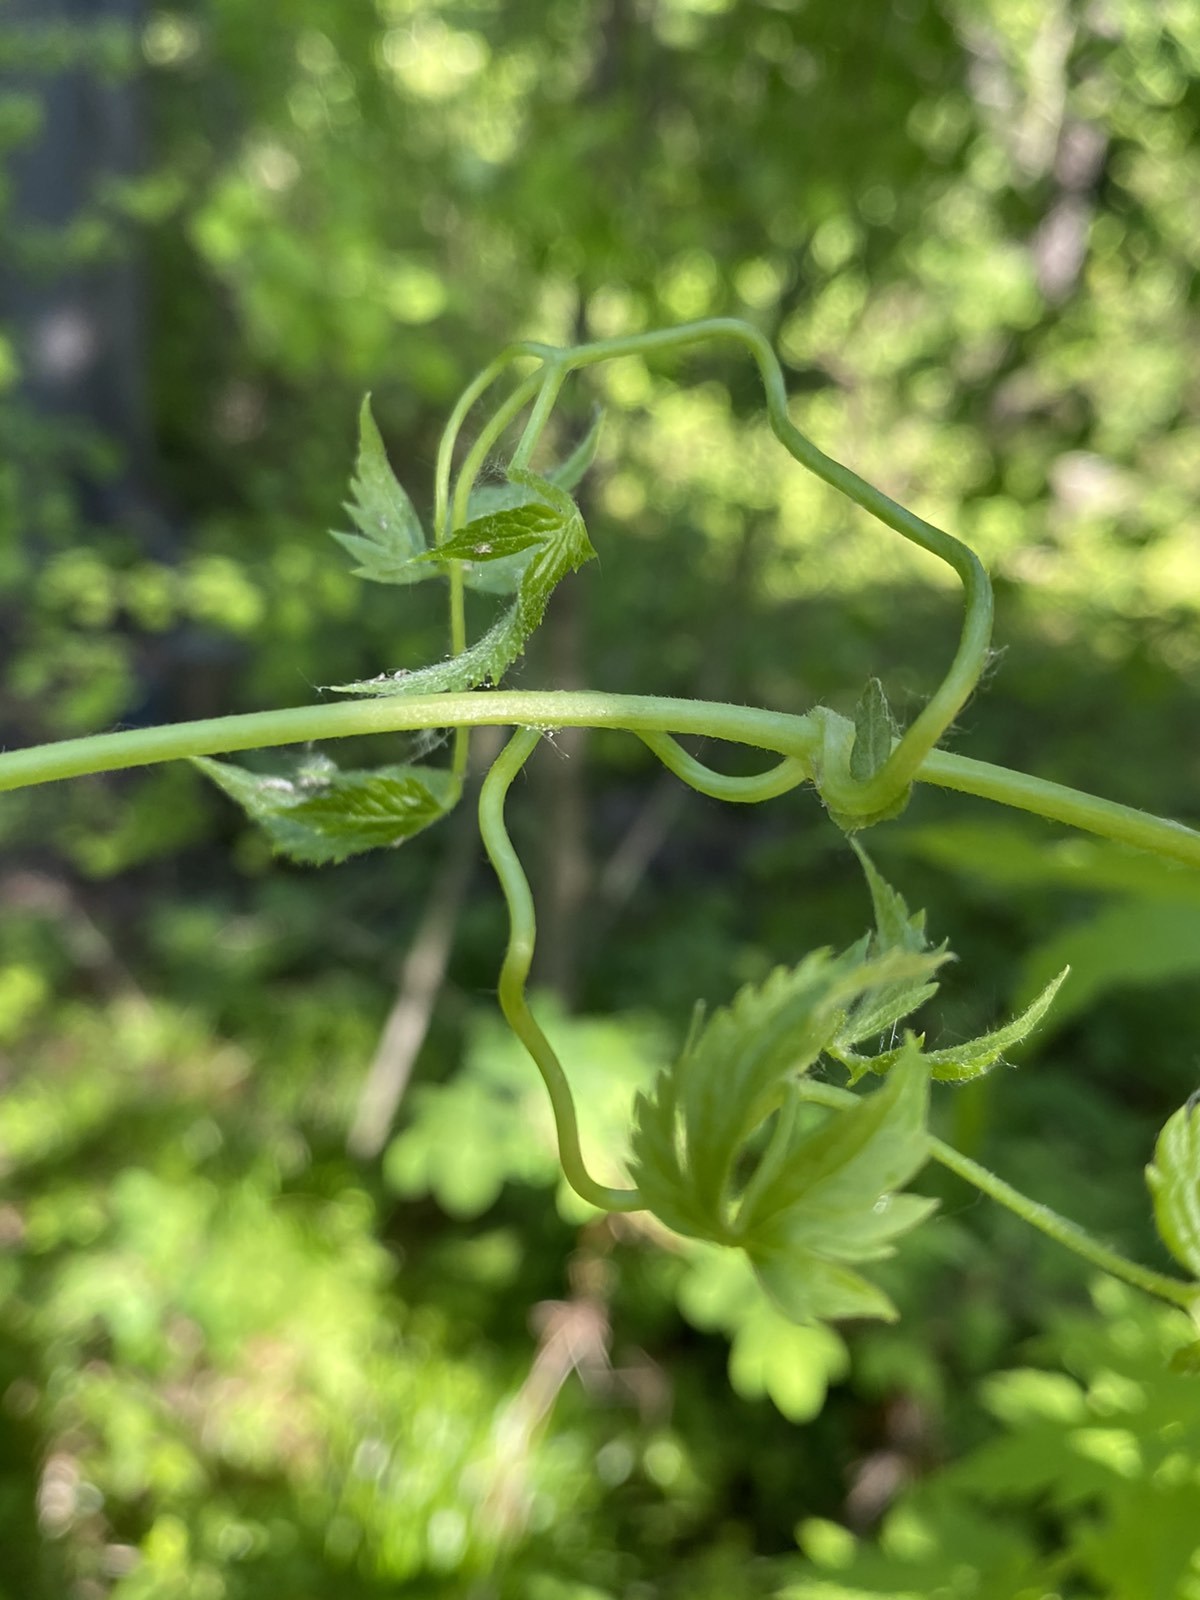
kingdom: Plantae
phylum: Tracheophyta
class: Magnoliopsida
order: Ranunculales
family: Ranunculaceae
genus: Clematis
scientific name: Clematis sibirica
